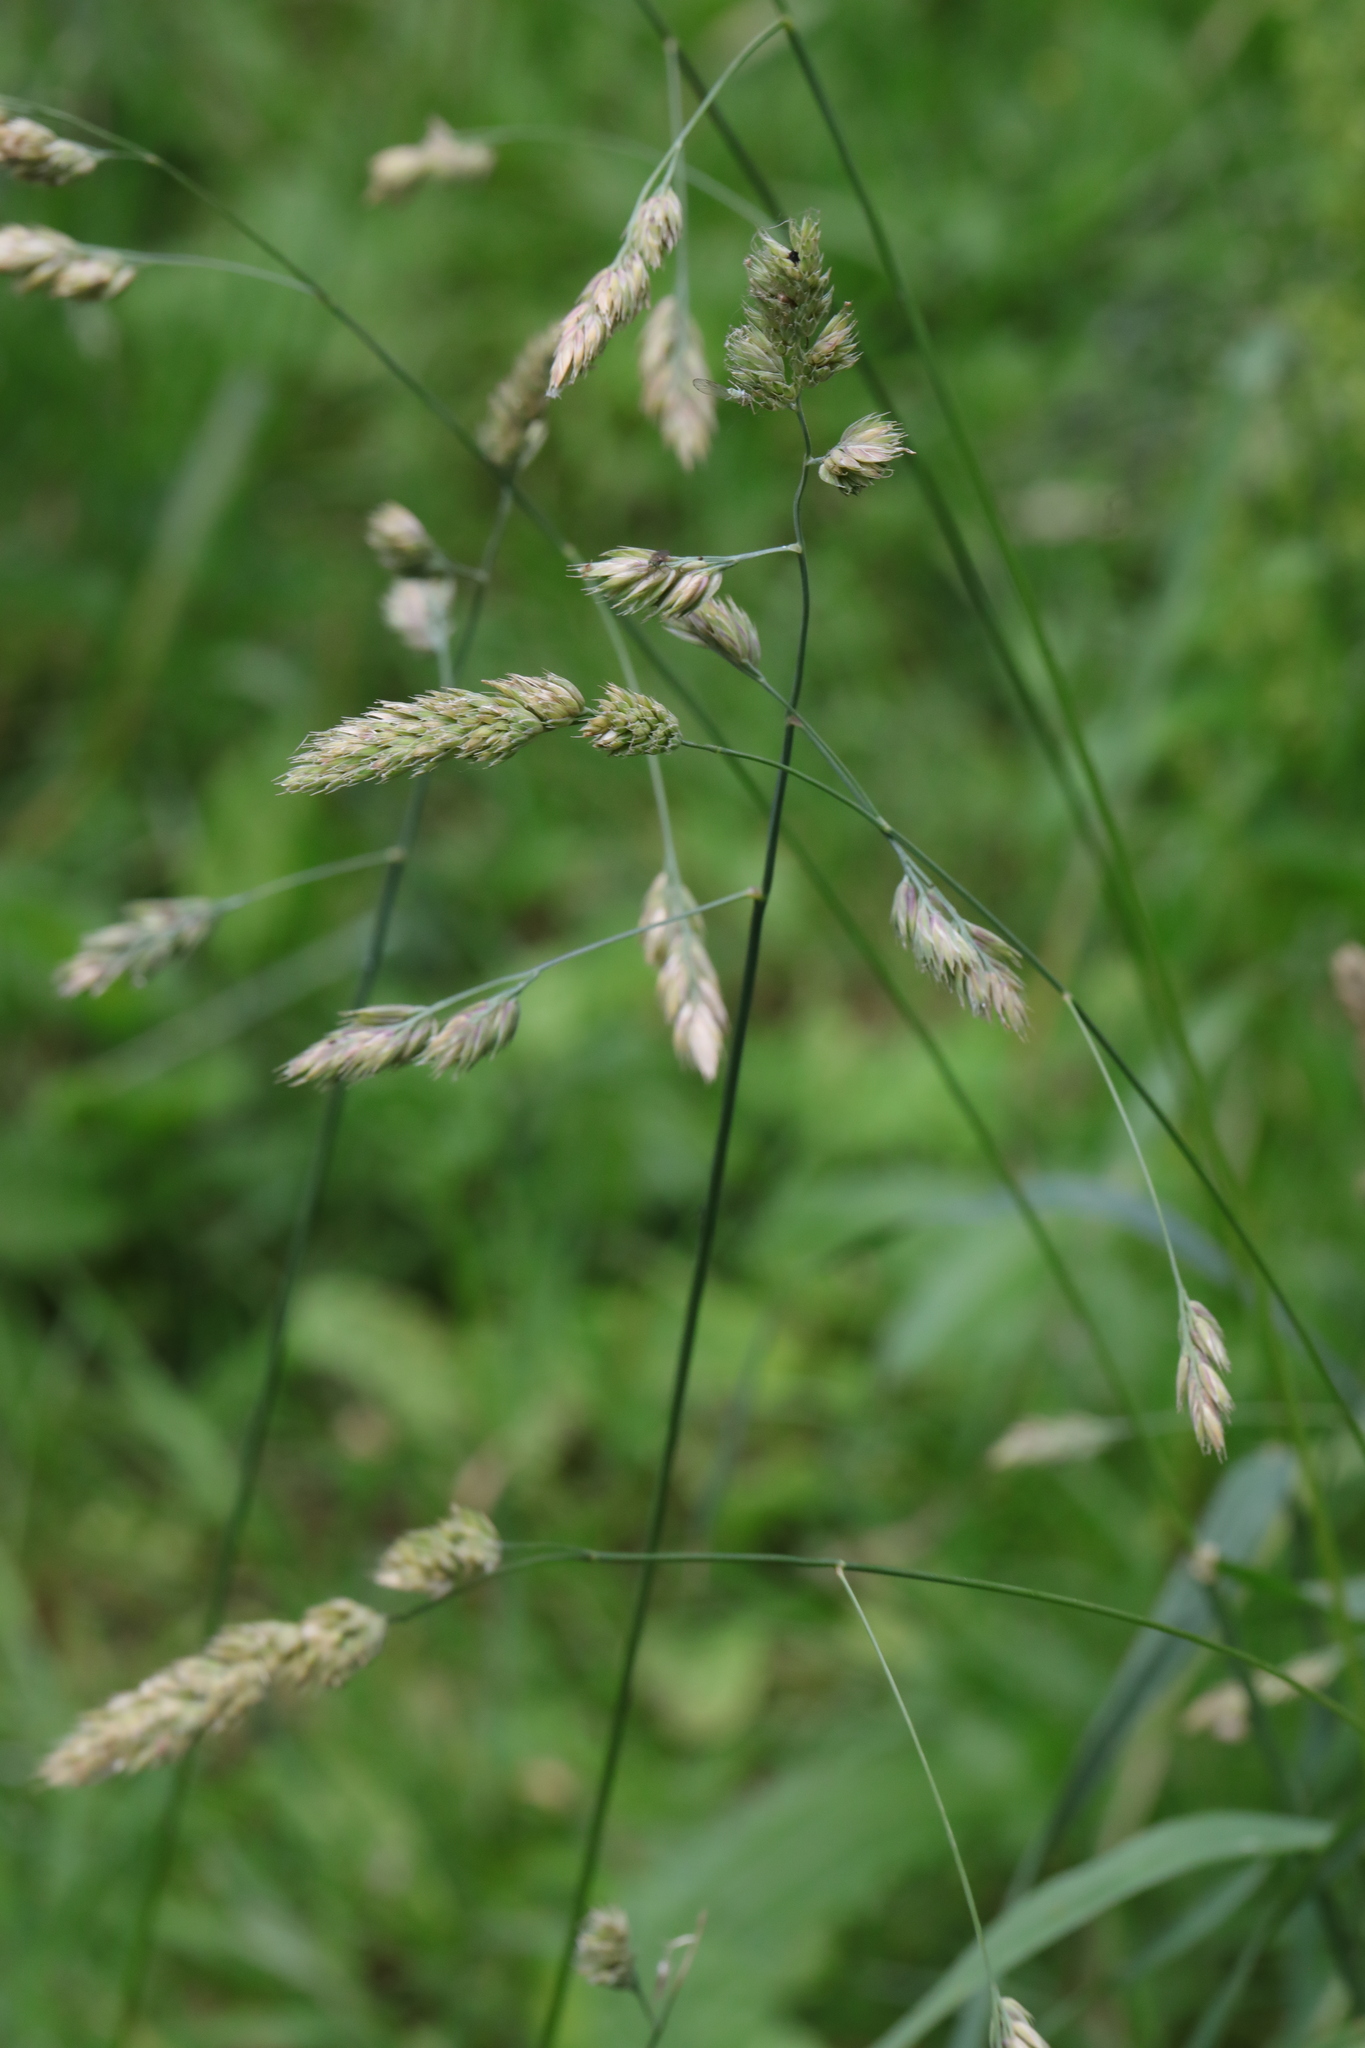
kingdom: Plantae
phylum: Tracheophyta
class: Liliopsida
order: Poales
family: Poaceae
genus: Dactylis
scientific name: Dactylis glomerata
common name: Orchardgrass
